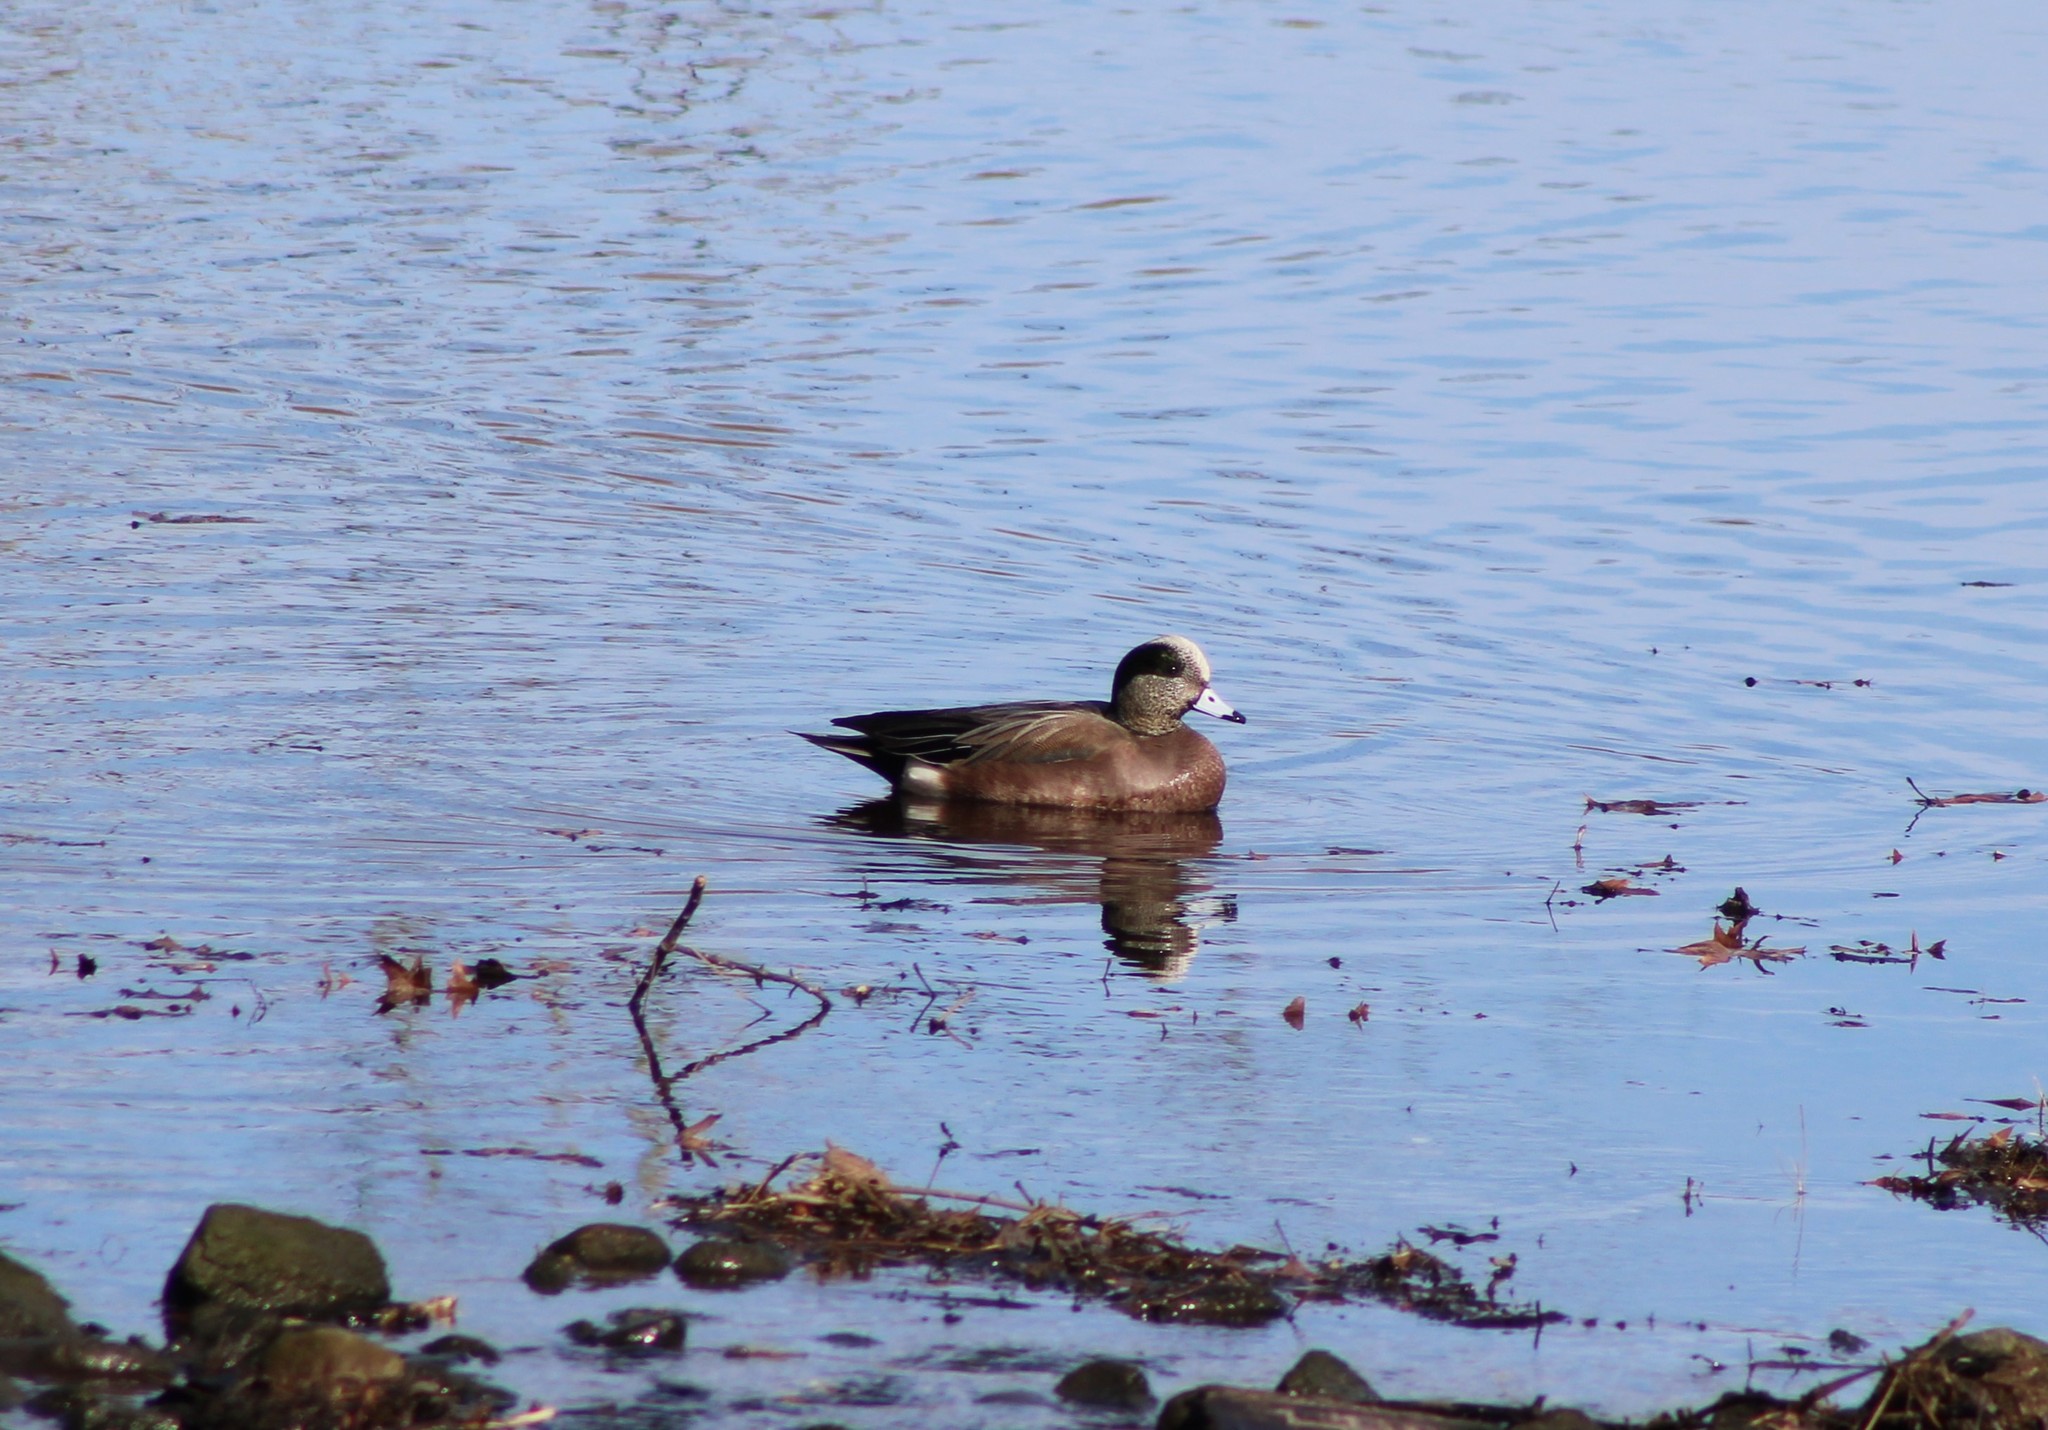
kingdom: Animalia
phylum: Chordata
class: Aves
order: Anseriformes
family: Anatidae
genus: Mareca
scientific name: Mareca americana
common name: American wigeon
